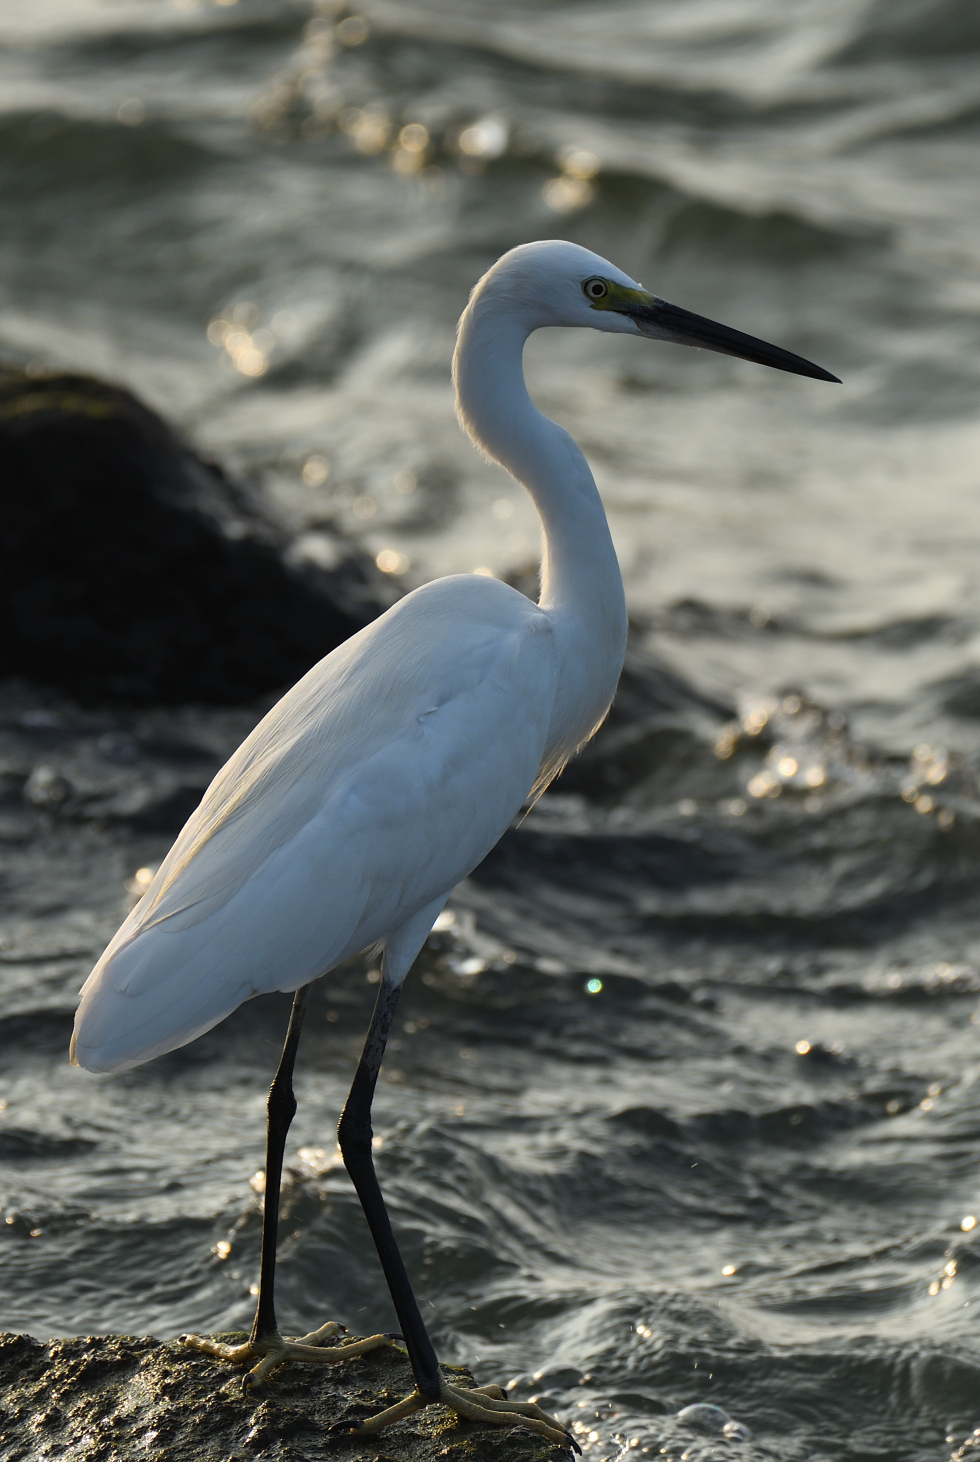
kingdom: Animalia
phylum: Chordata
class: Aves
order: Pelecaniformes
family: Ardeidae
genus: Egretta
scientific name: Egretta garzetta
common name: Little egret
